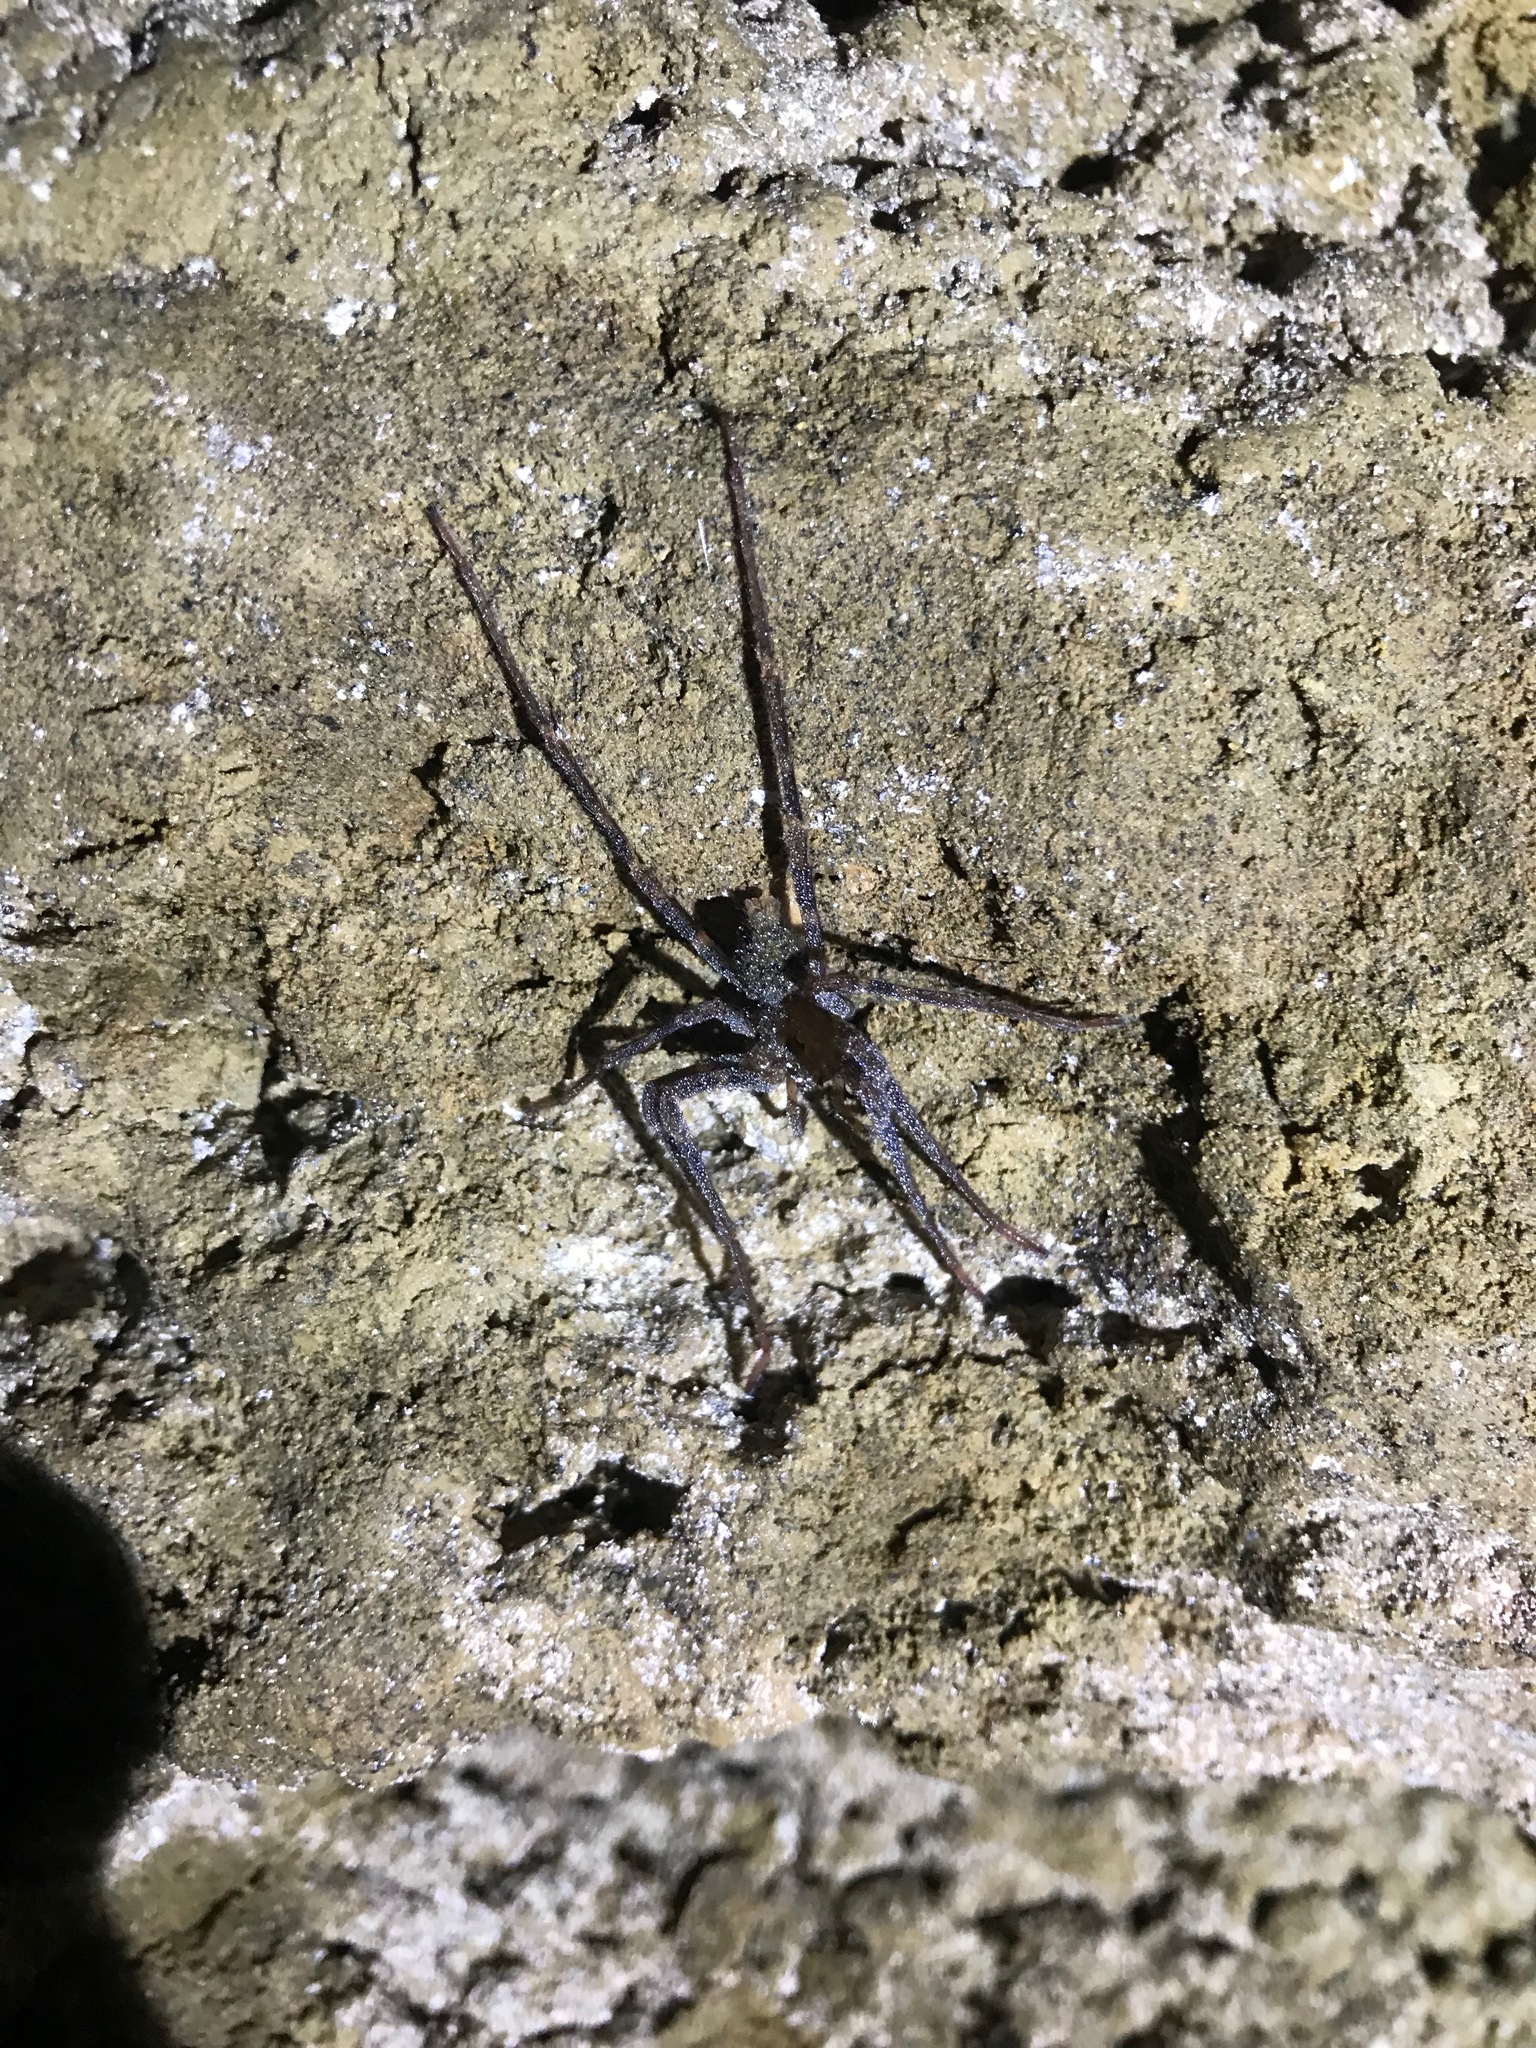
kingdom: Animalia
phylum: Arthropoda
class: Arachnida
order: Araneae
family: Gradungulidae
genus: Spelungula
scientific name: Spelungula cavernicola
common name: Nelson cave spider
